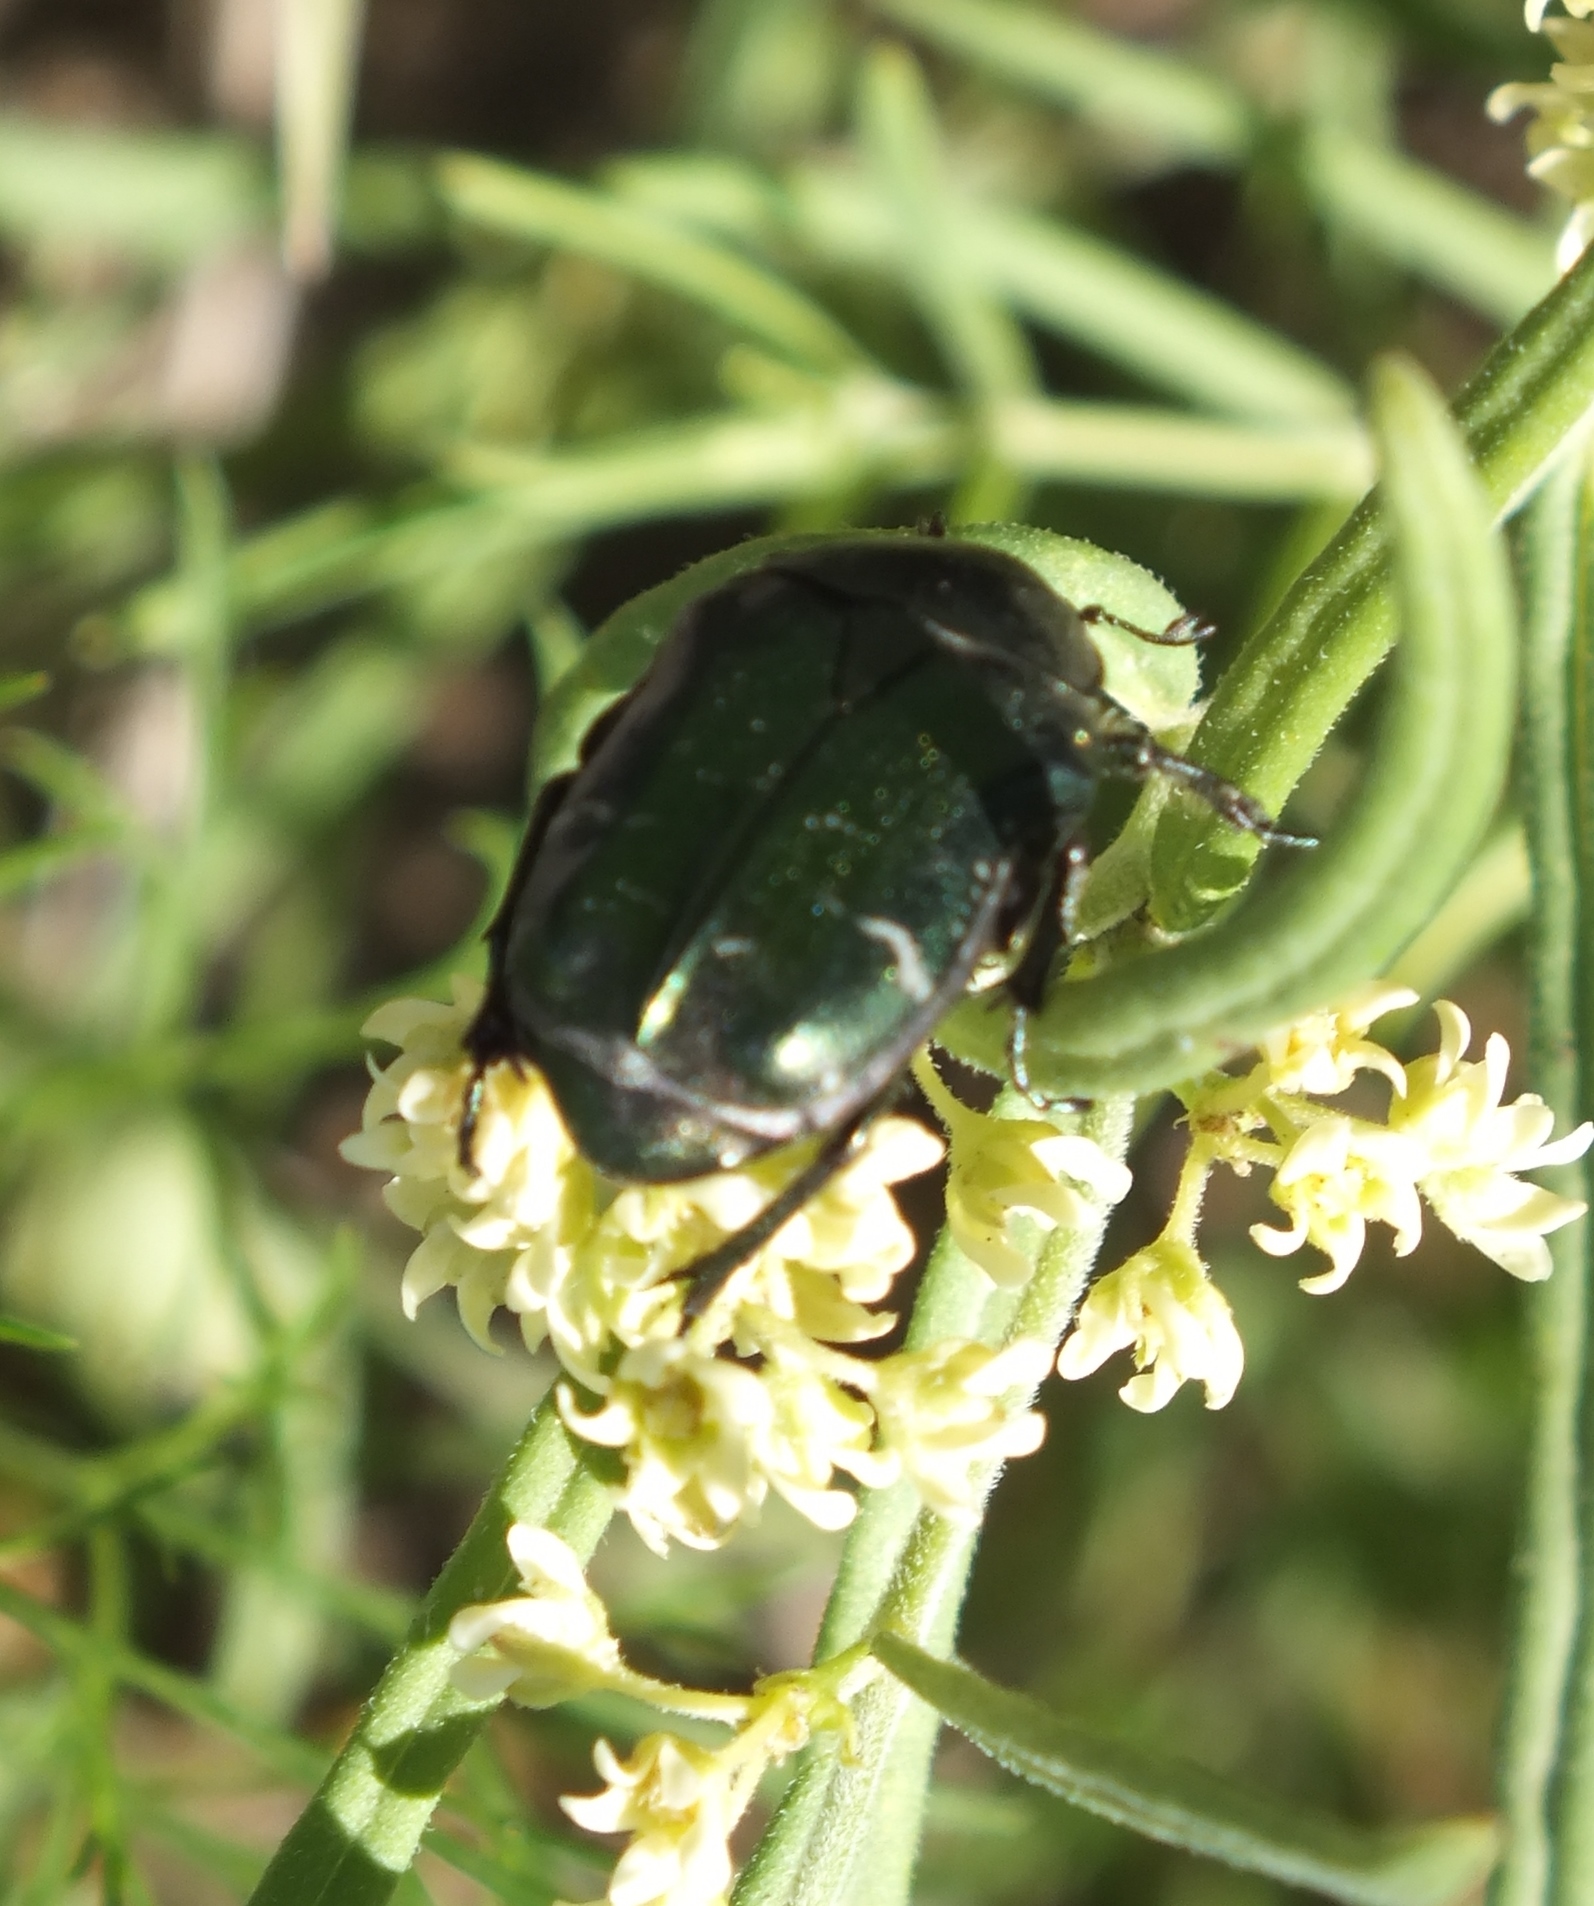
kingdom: Animalia
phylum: Arthropoda
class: Insecta
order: Coleoptera
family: Scarabaeidae
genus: Cetonia
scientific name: Cetonia aurata
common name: Rose chafer
